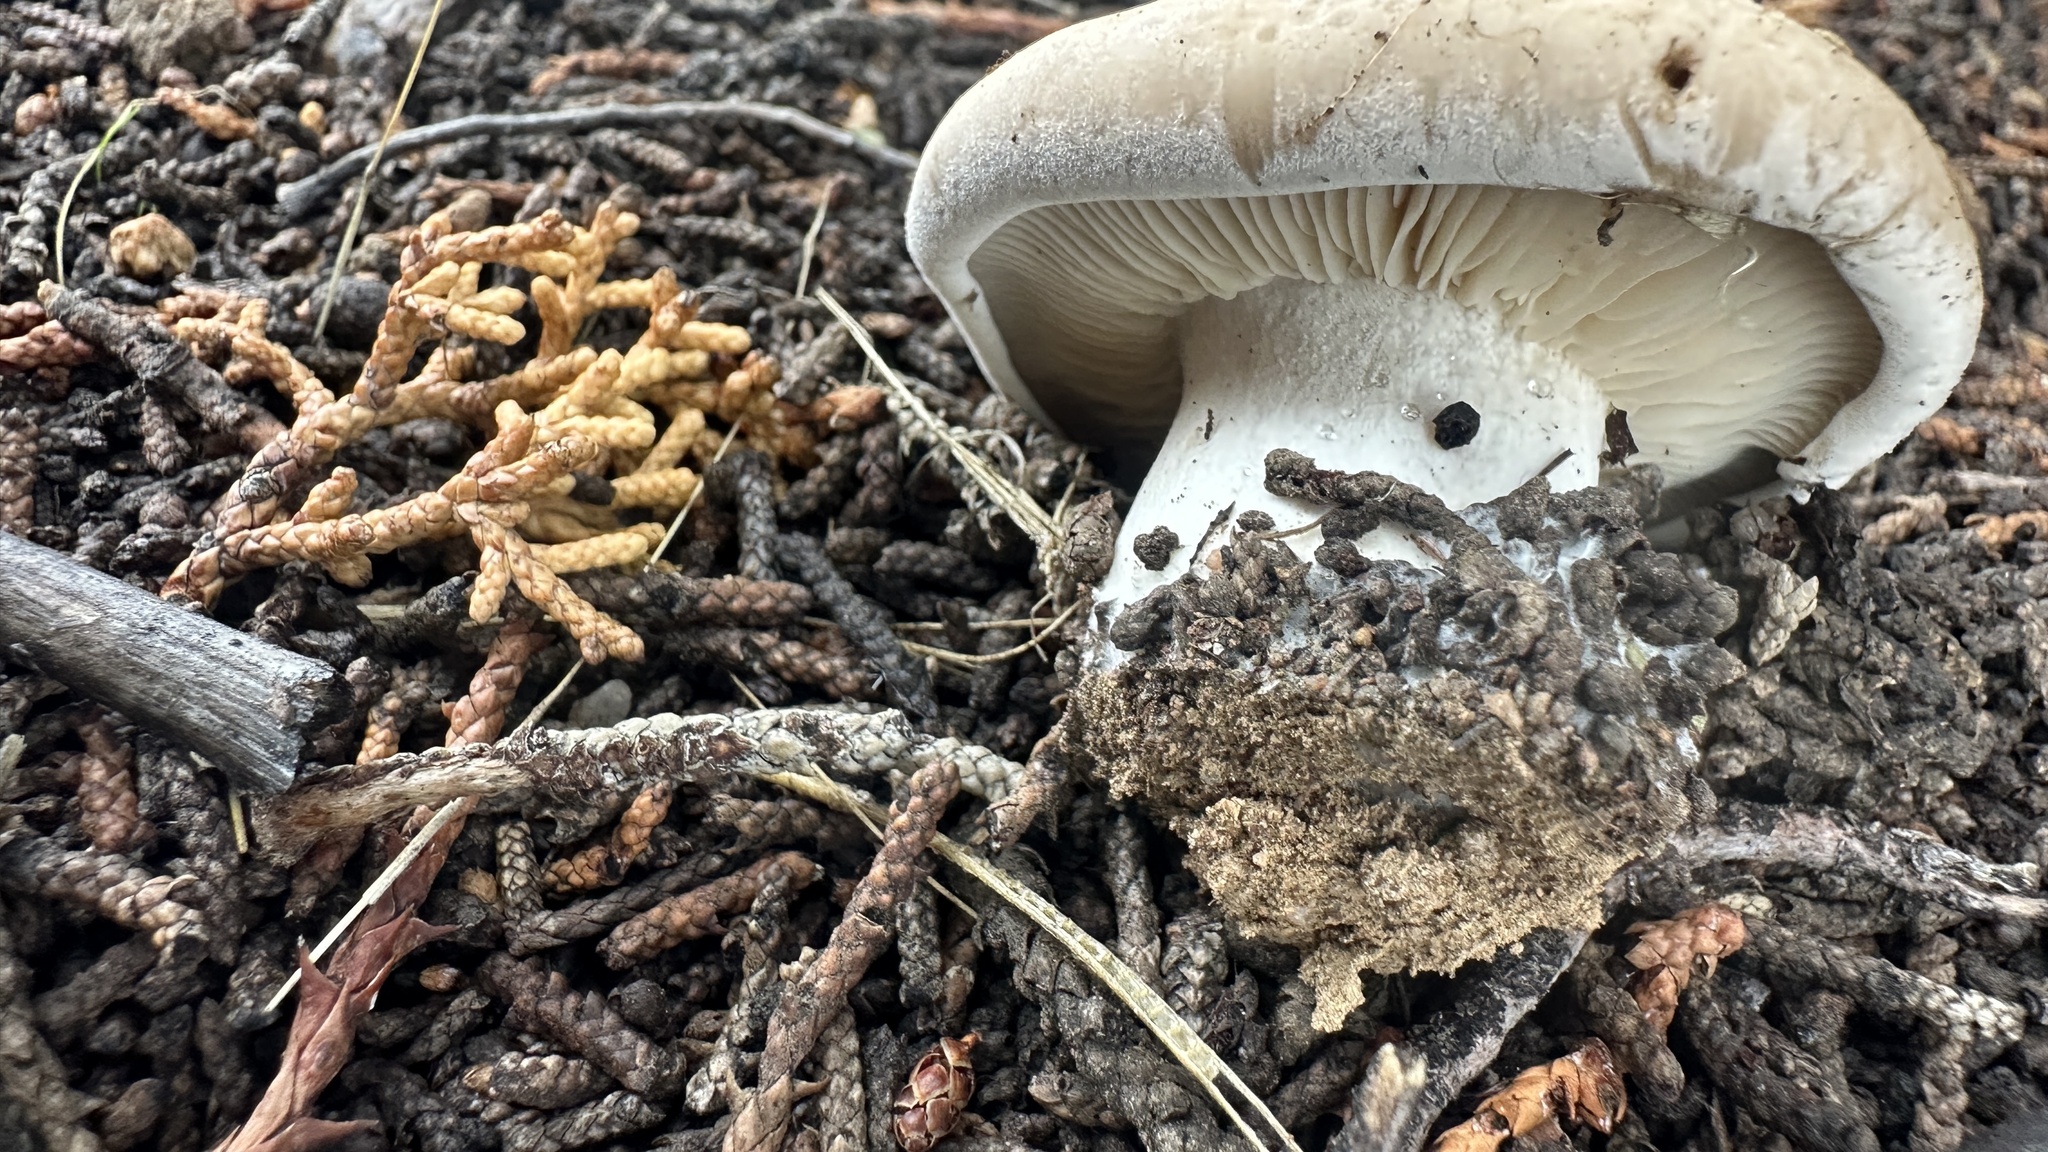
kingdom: Fungi
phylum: Basidiomycota
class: Agaricomycetes
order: Agaricales
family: Tricholomataceae
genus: Collybia
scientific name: Collybia
